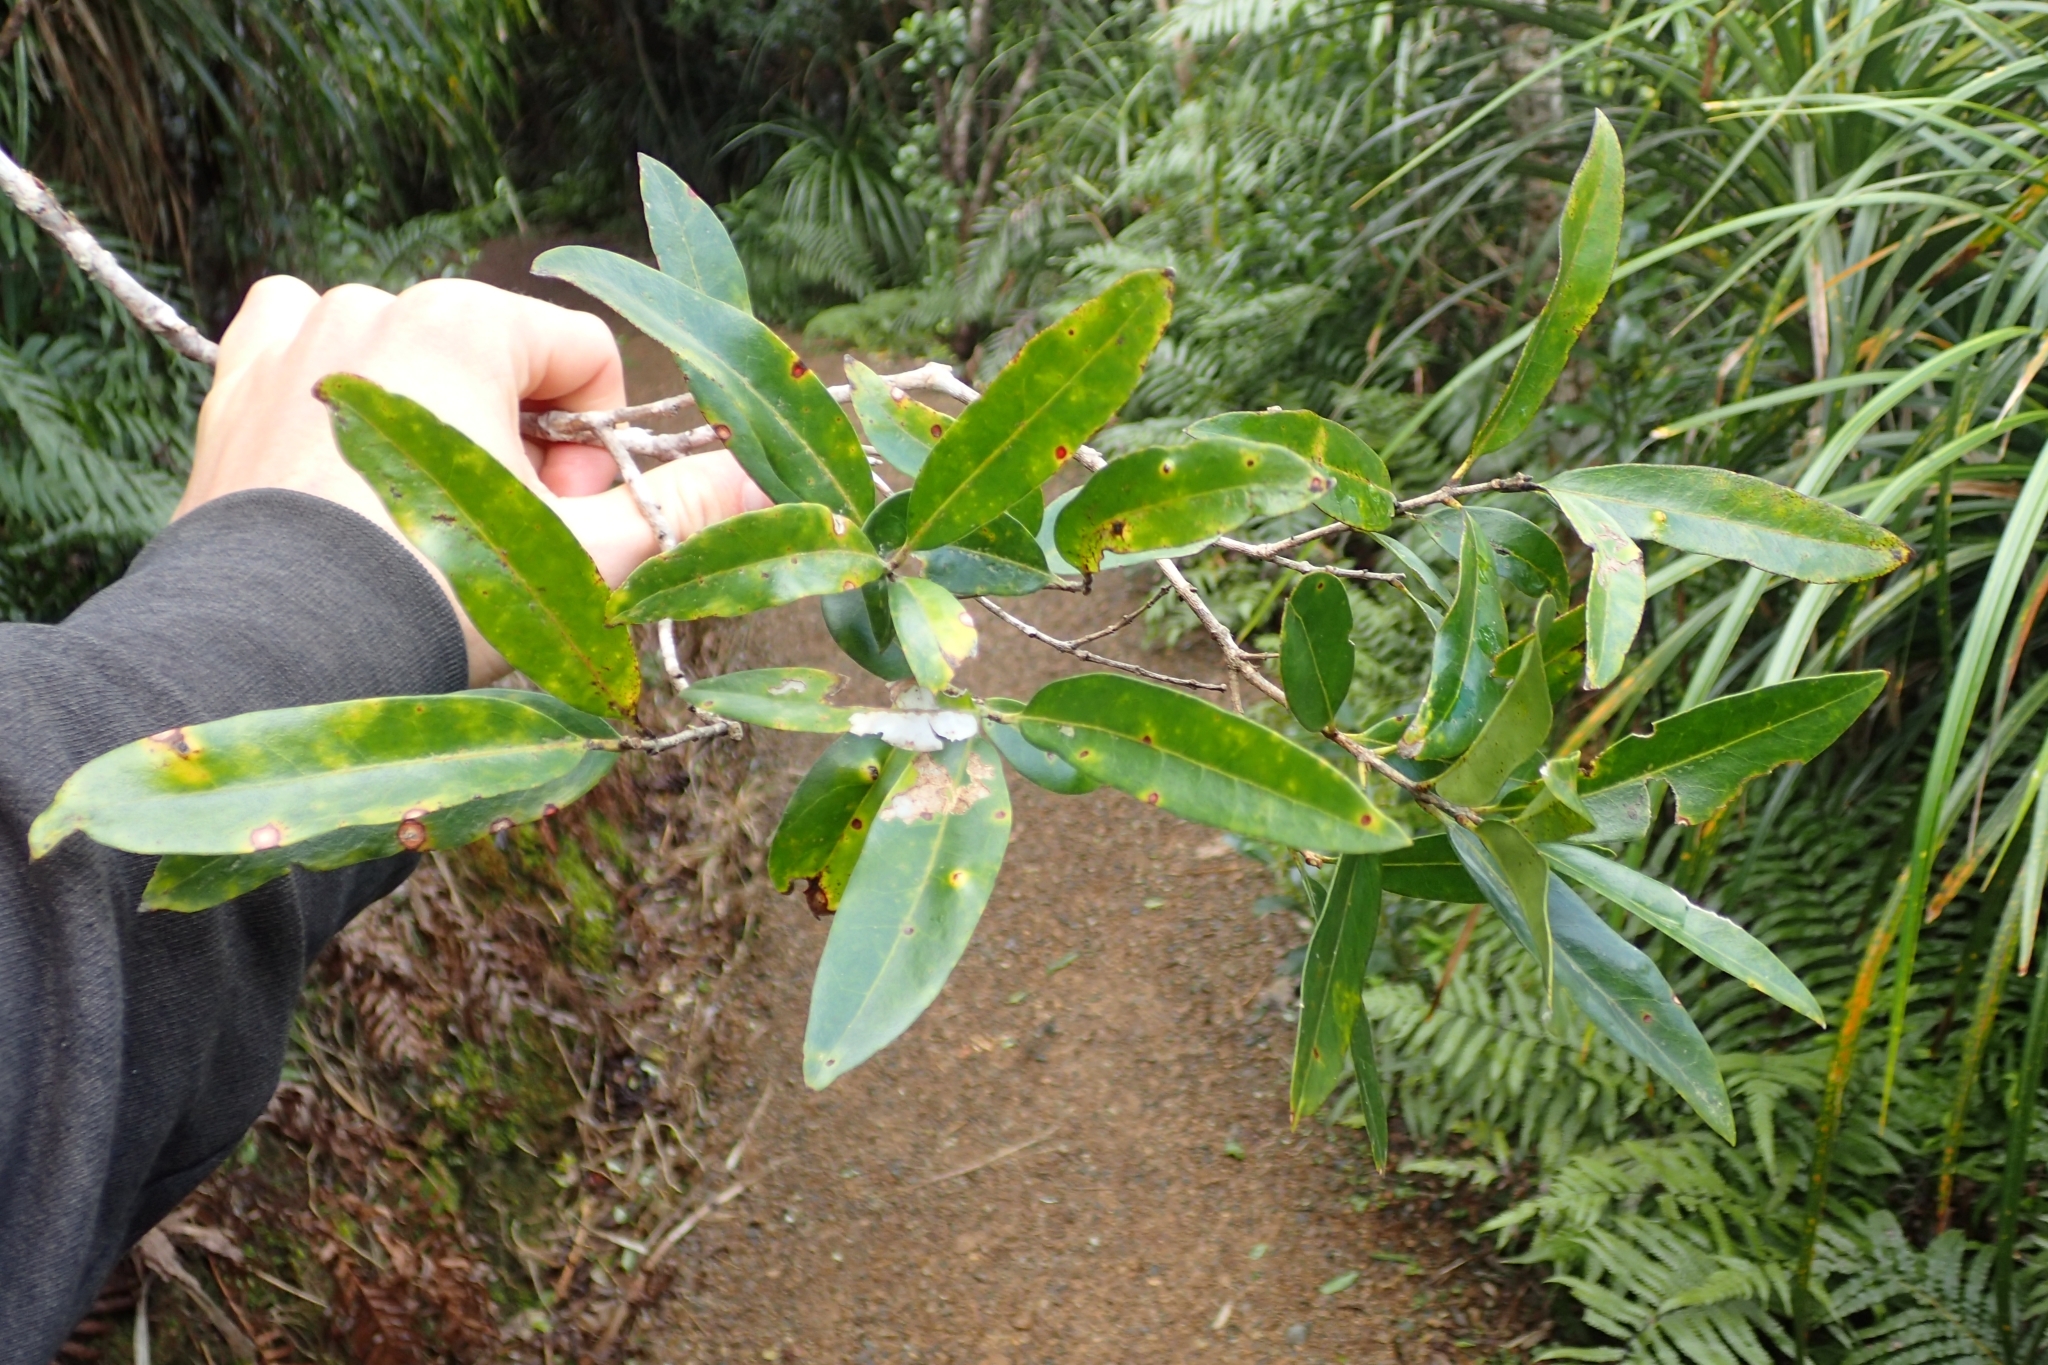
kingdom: Plantae
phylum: Tracheophyta
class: Magnoliopsida
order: Lamiales
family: Oleaceae
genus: Nestegis
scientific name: Nestegis lanceolata
